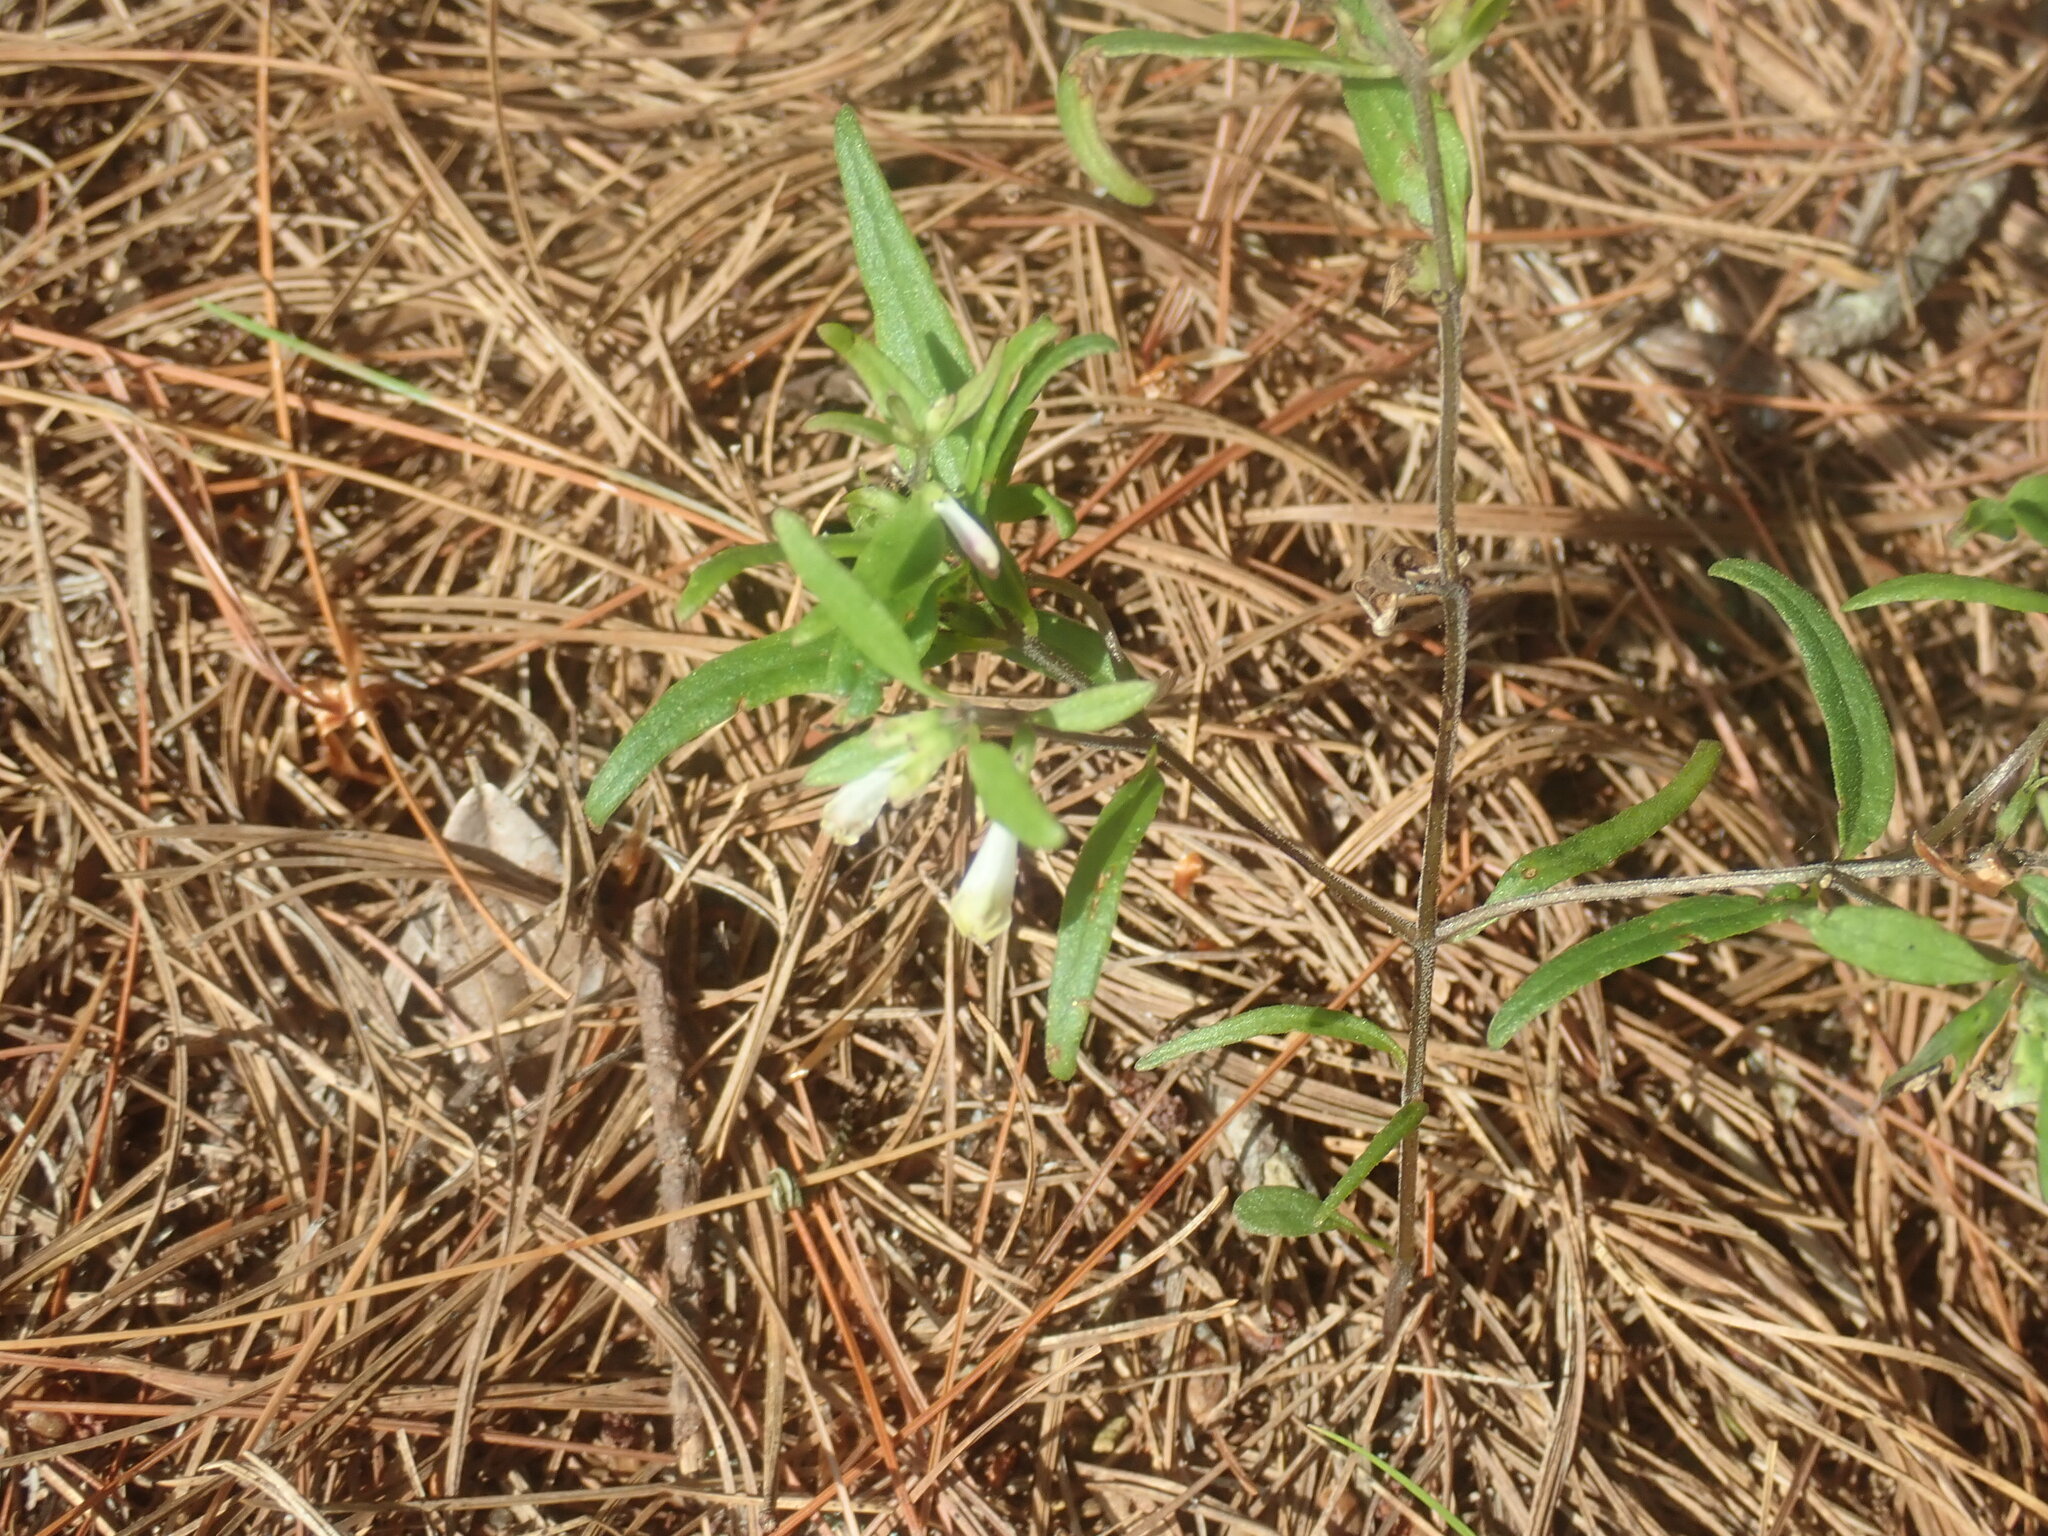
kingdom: Plantae
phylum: Tracheophyta
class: Magnoliopsida
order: Lamiales
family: Orobanchaceae
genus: Melampyrum
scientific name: Melampyrum lineare
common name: American cow-wheat
